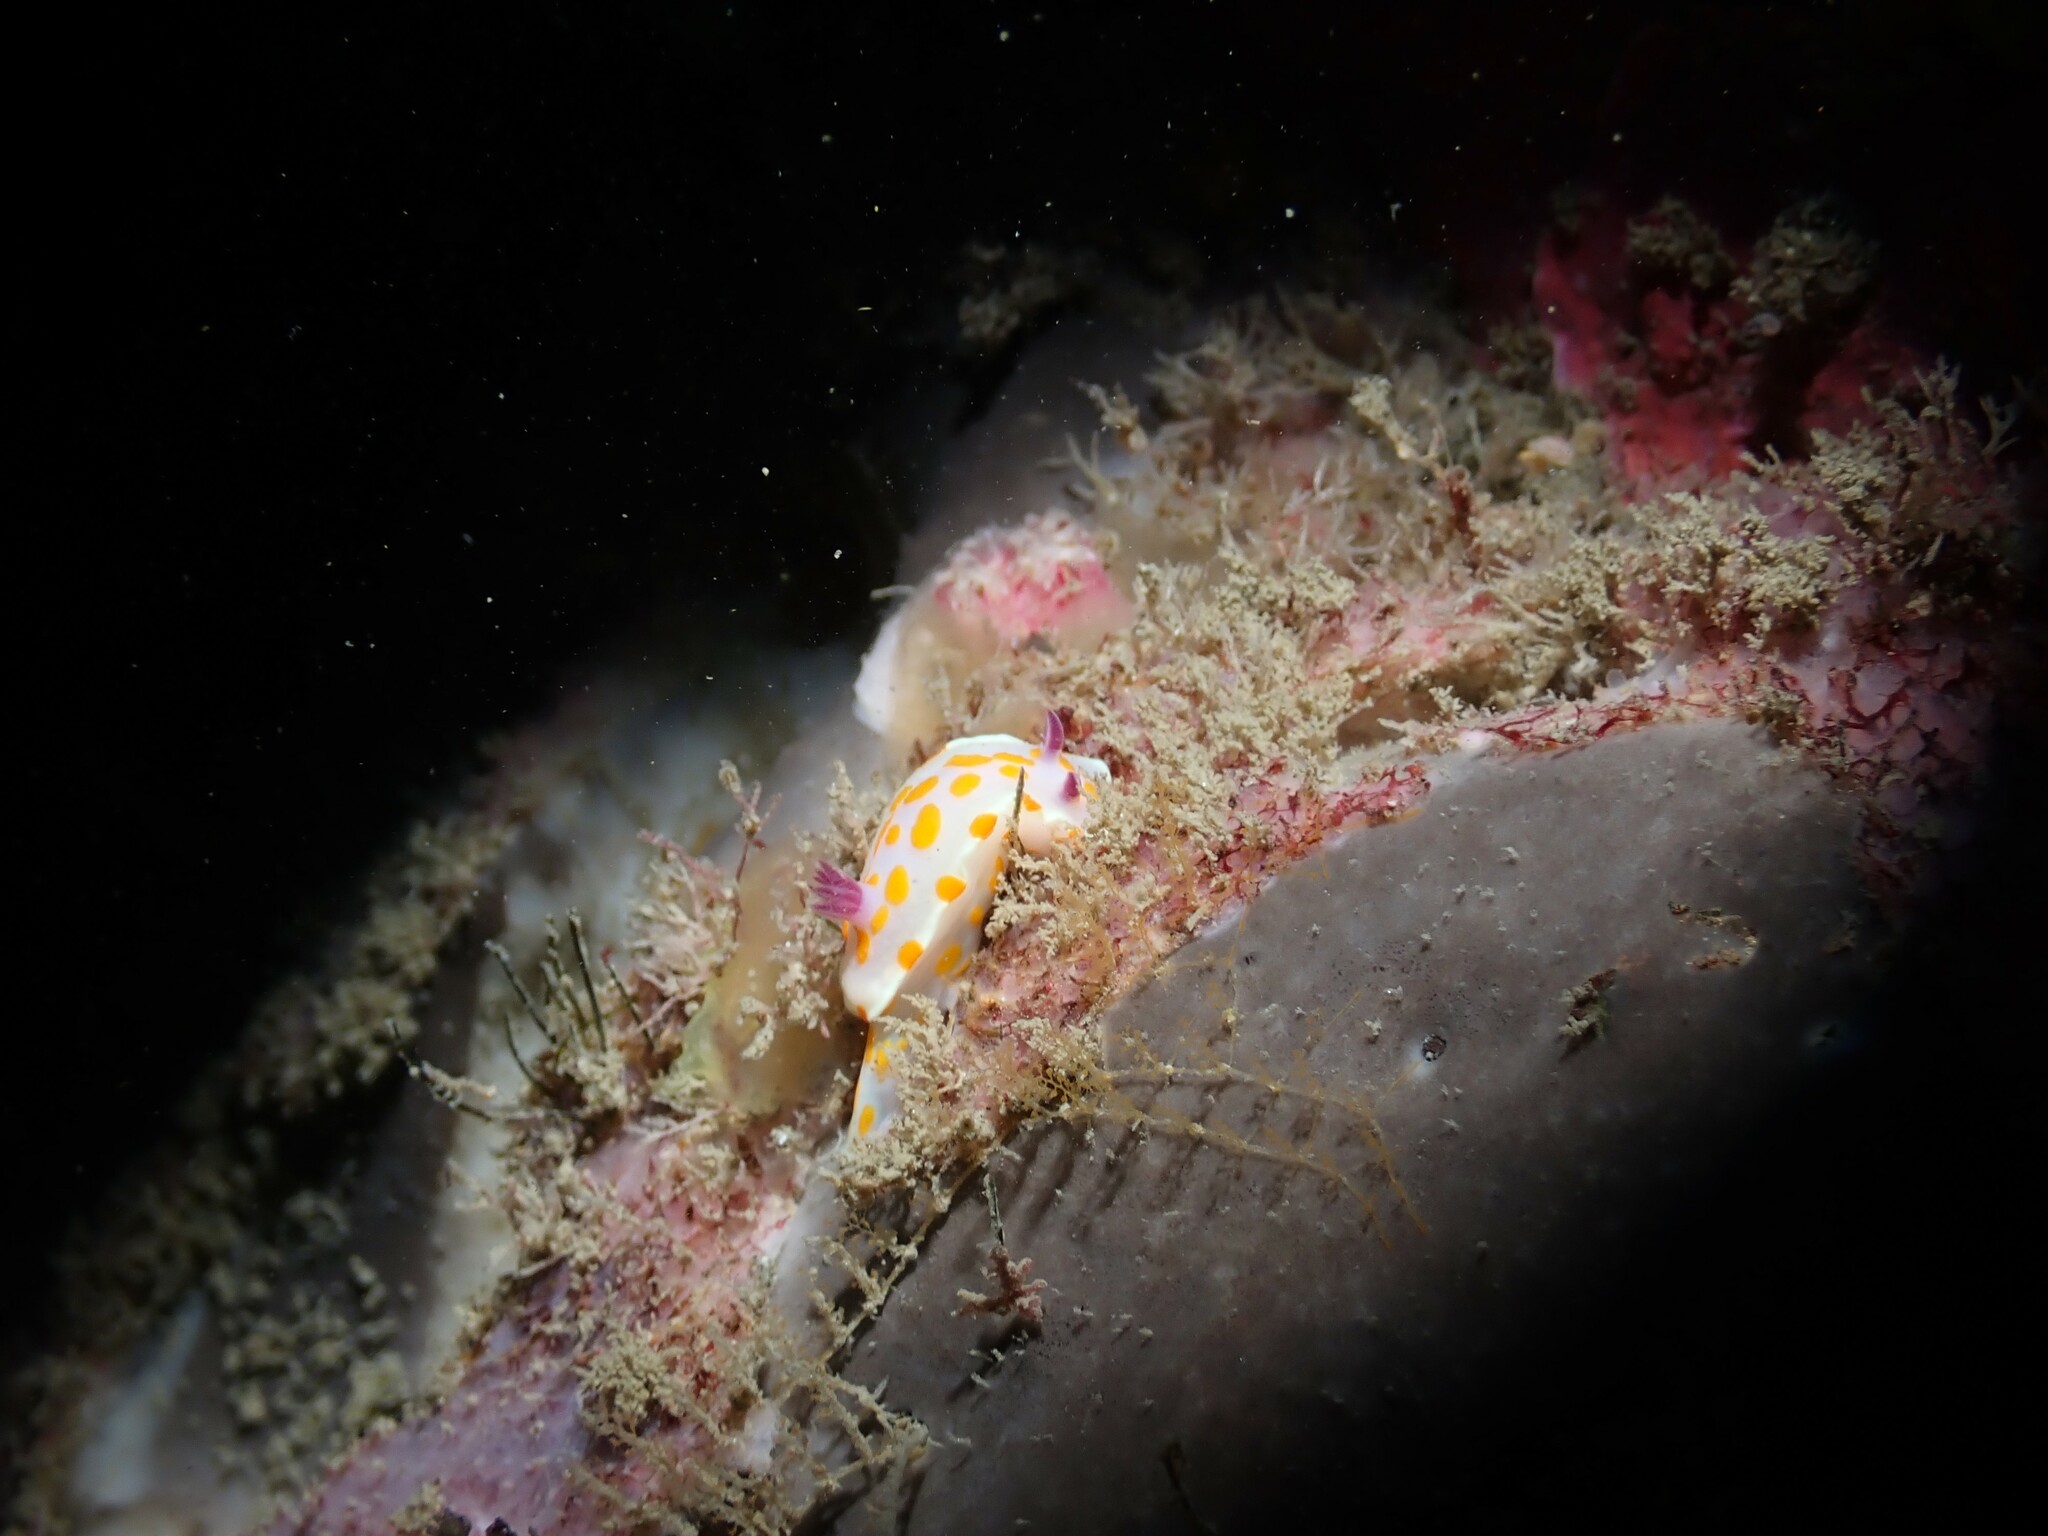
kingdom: Animalia
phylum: Mollusca
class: Gastropoda
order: Nudibranchia
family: Chromodorididae
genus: Ceratosoma
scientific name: Ceratosoma amoenum
